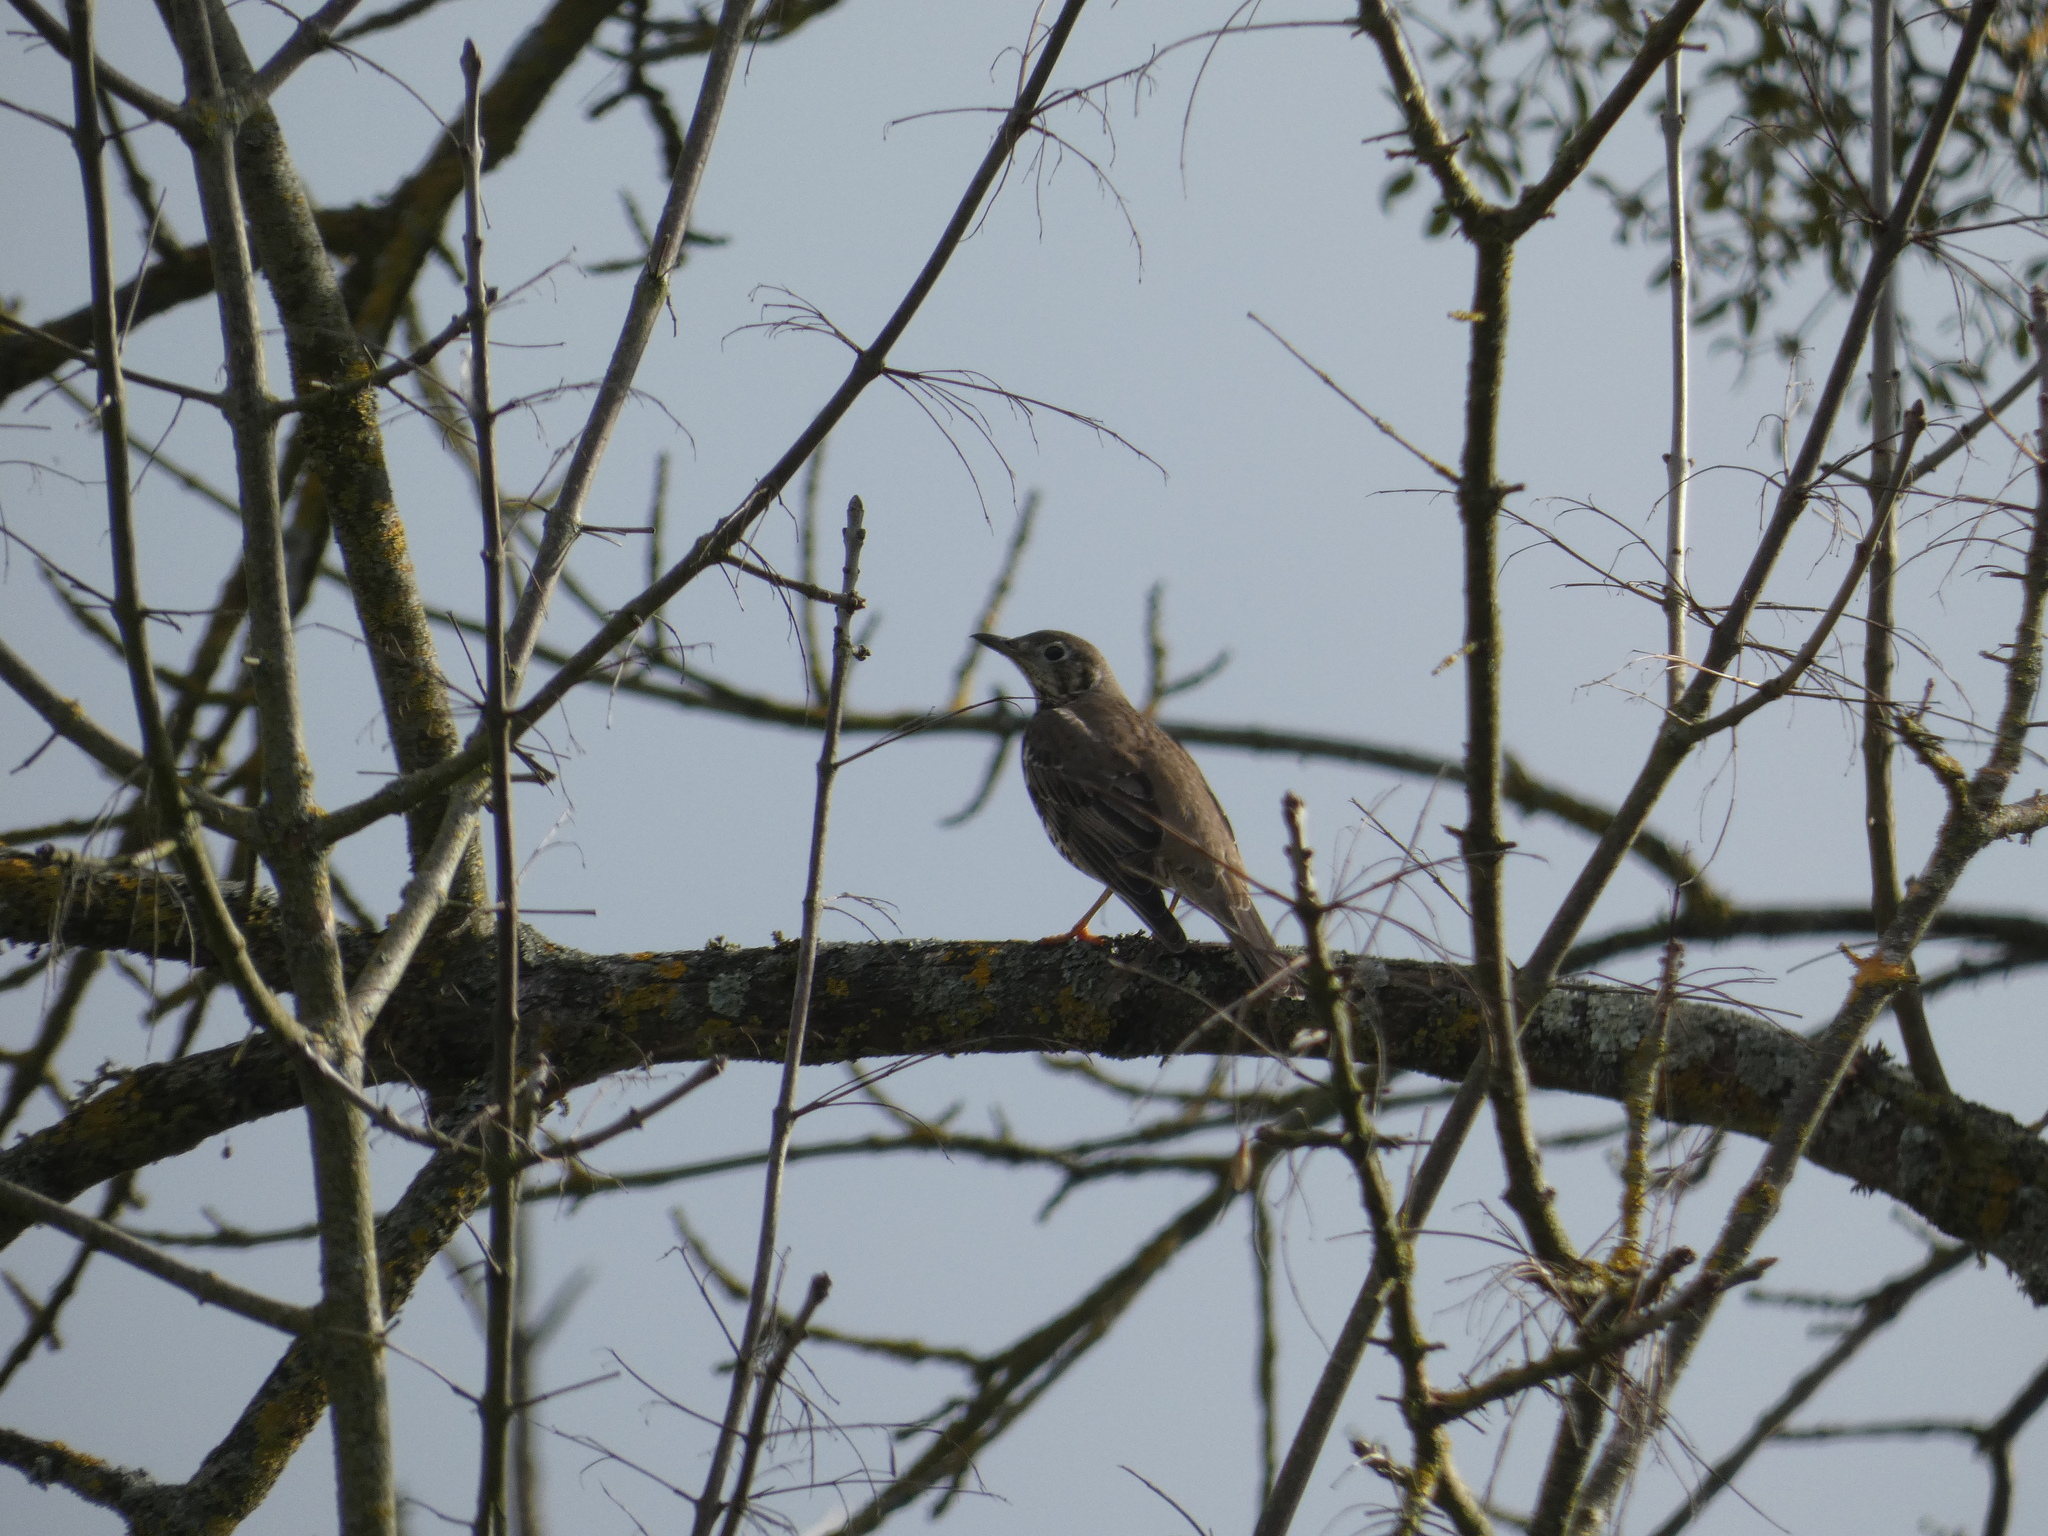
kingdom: Animalia
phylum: Chordata
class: Aves
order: Passeriformes
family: Turdidae
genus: Turdus
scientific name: Turdus viscivorus
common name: Mistle thrush
